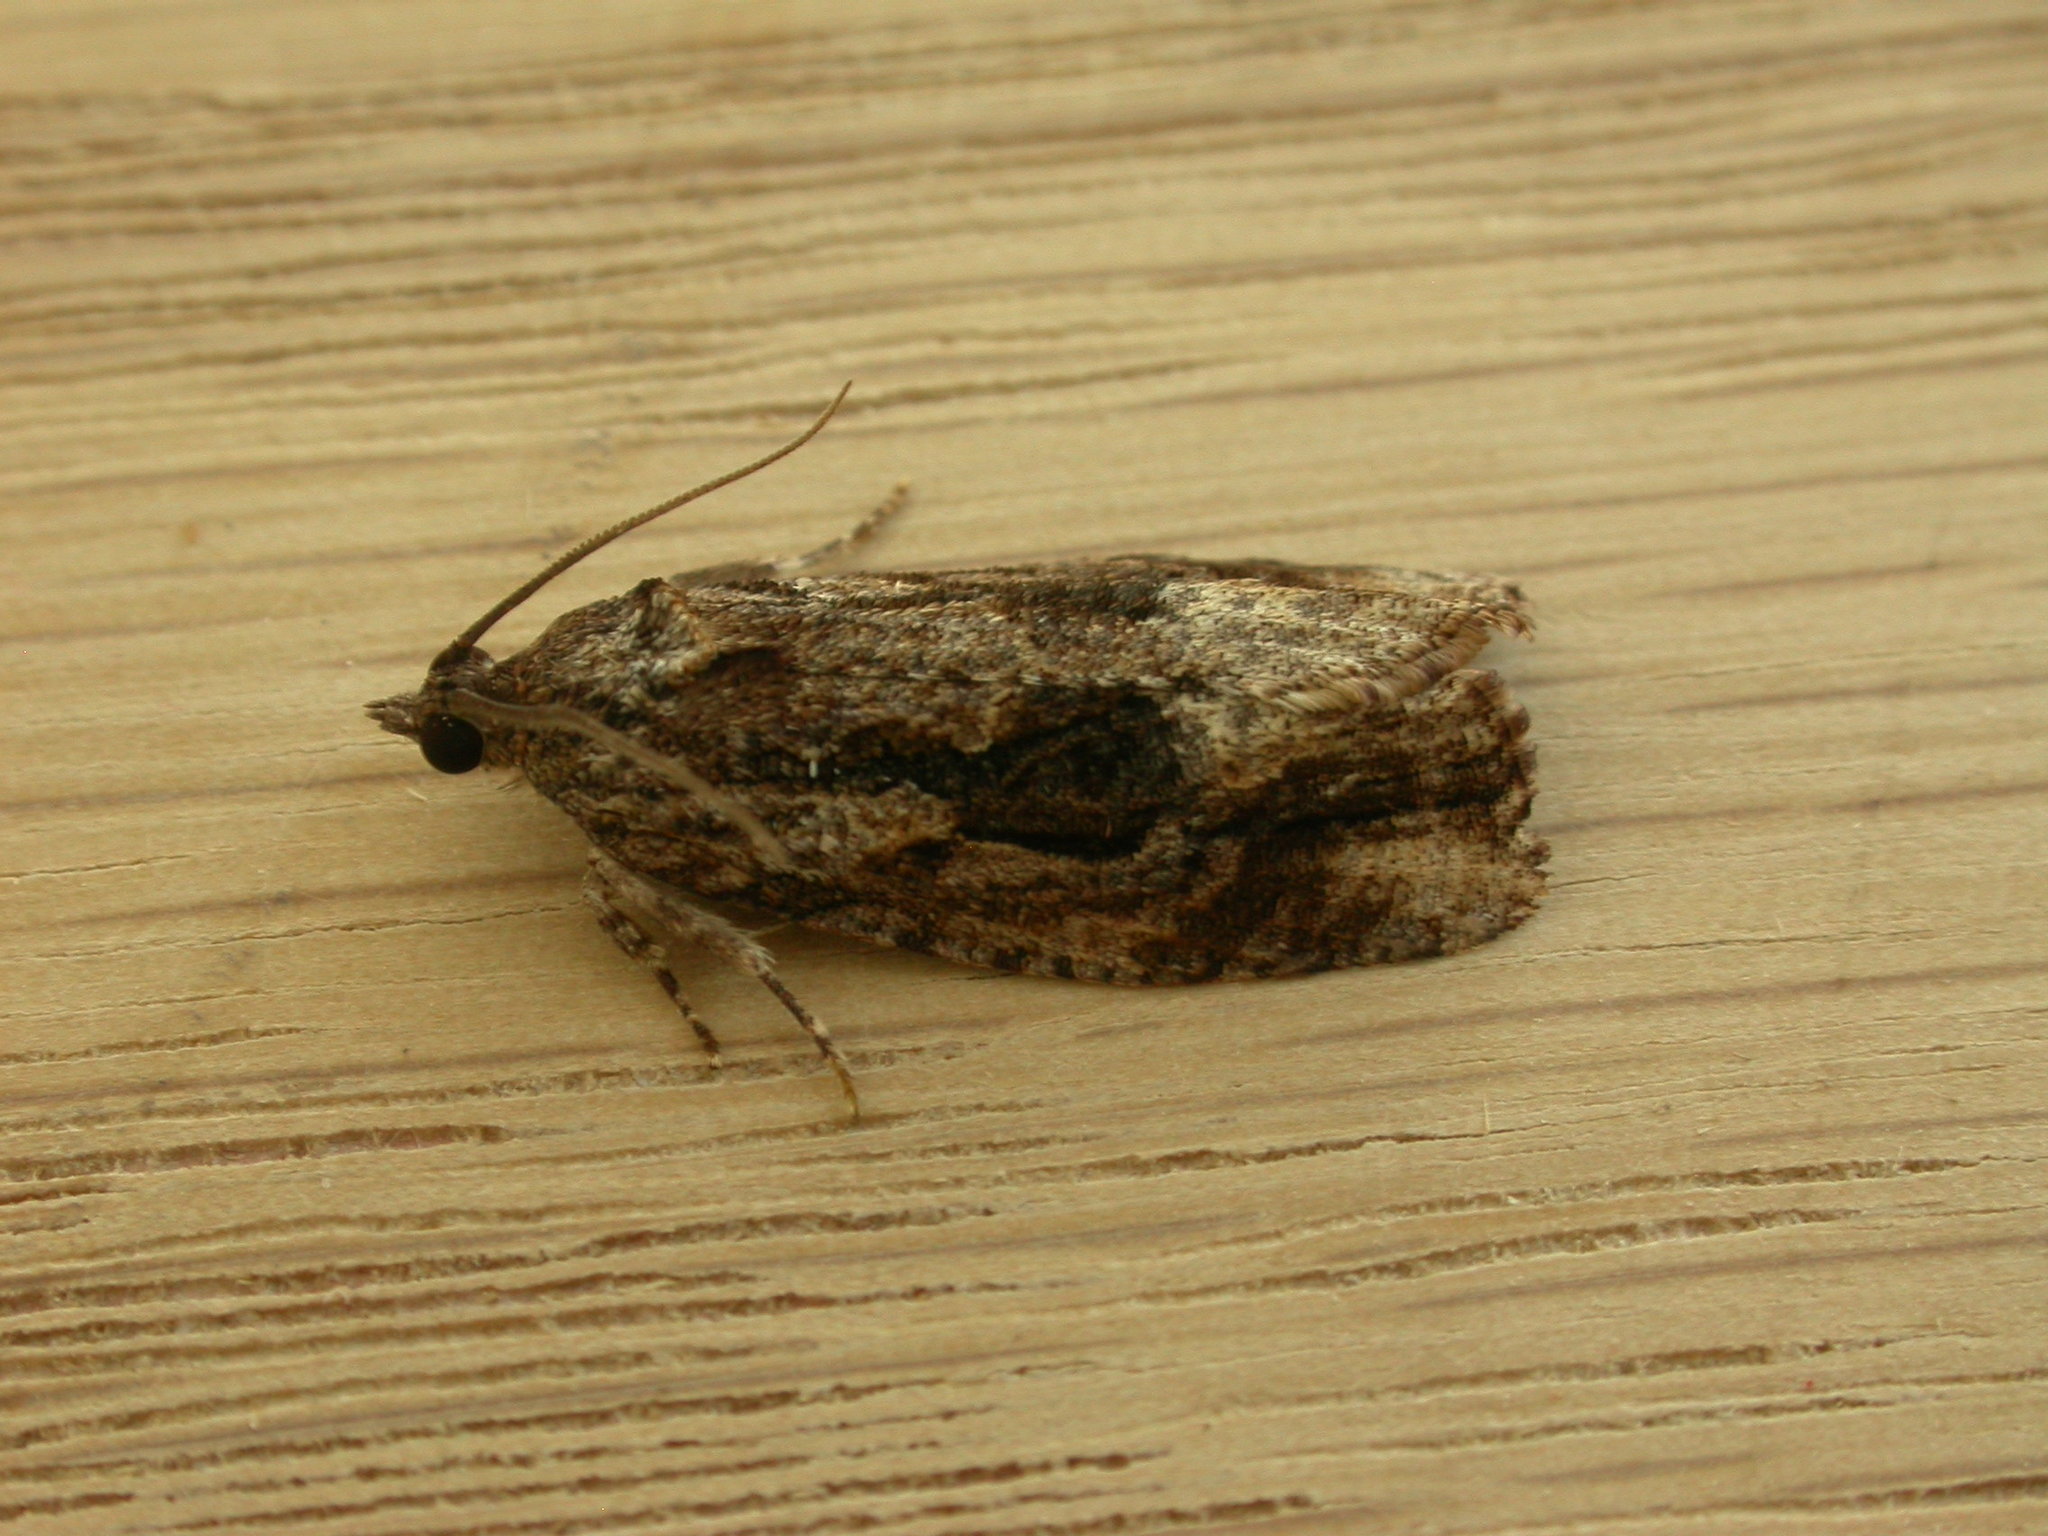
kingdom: Animalia
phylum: Arthropoda
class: Insecta
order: Lepidoptera
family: Tortricidae
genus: Thrincophora
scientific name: Thrincophora lignigerana
